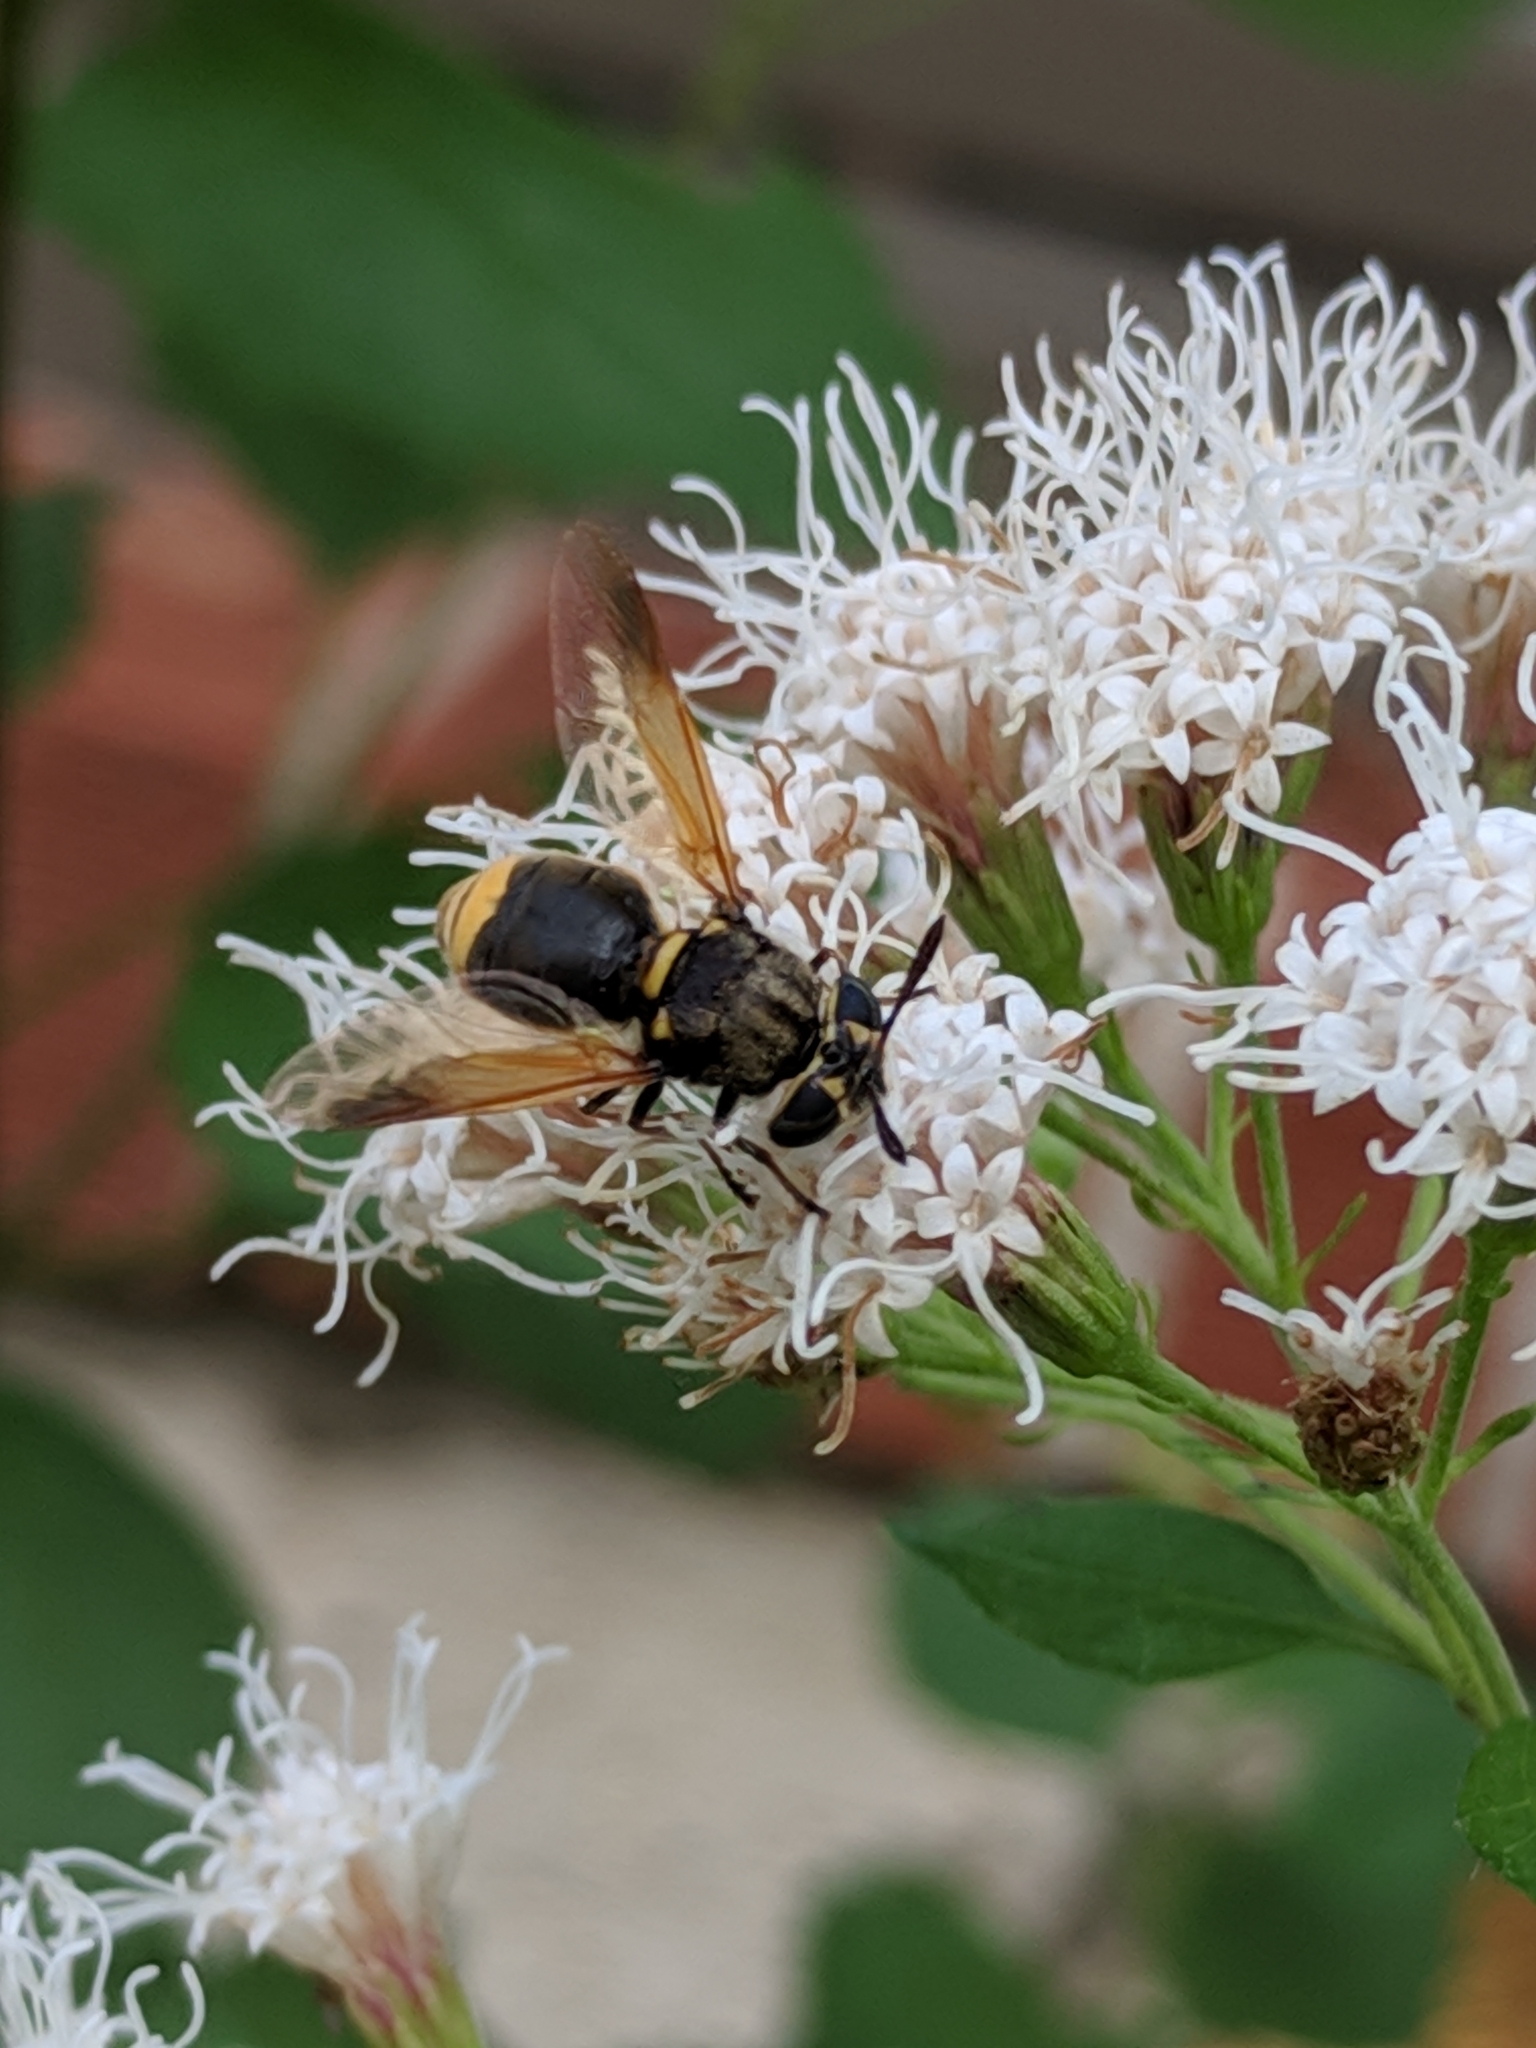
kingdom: Animalia
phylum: Arthropoda
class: Insecta
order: Diptera
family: Stratiomyidae
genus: Hoplitimyia
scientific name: Hoplitimyia mutabilis
